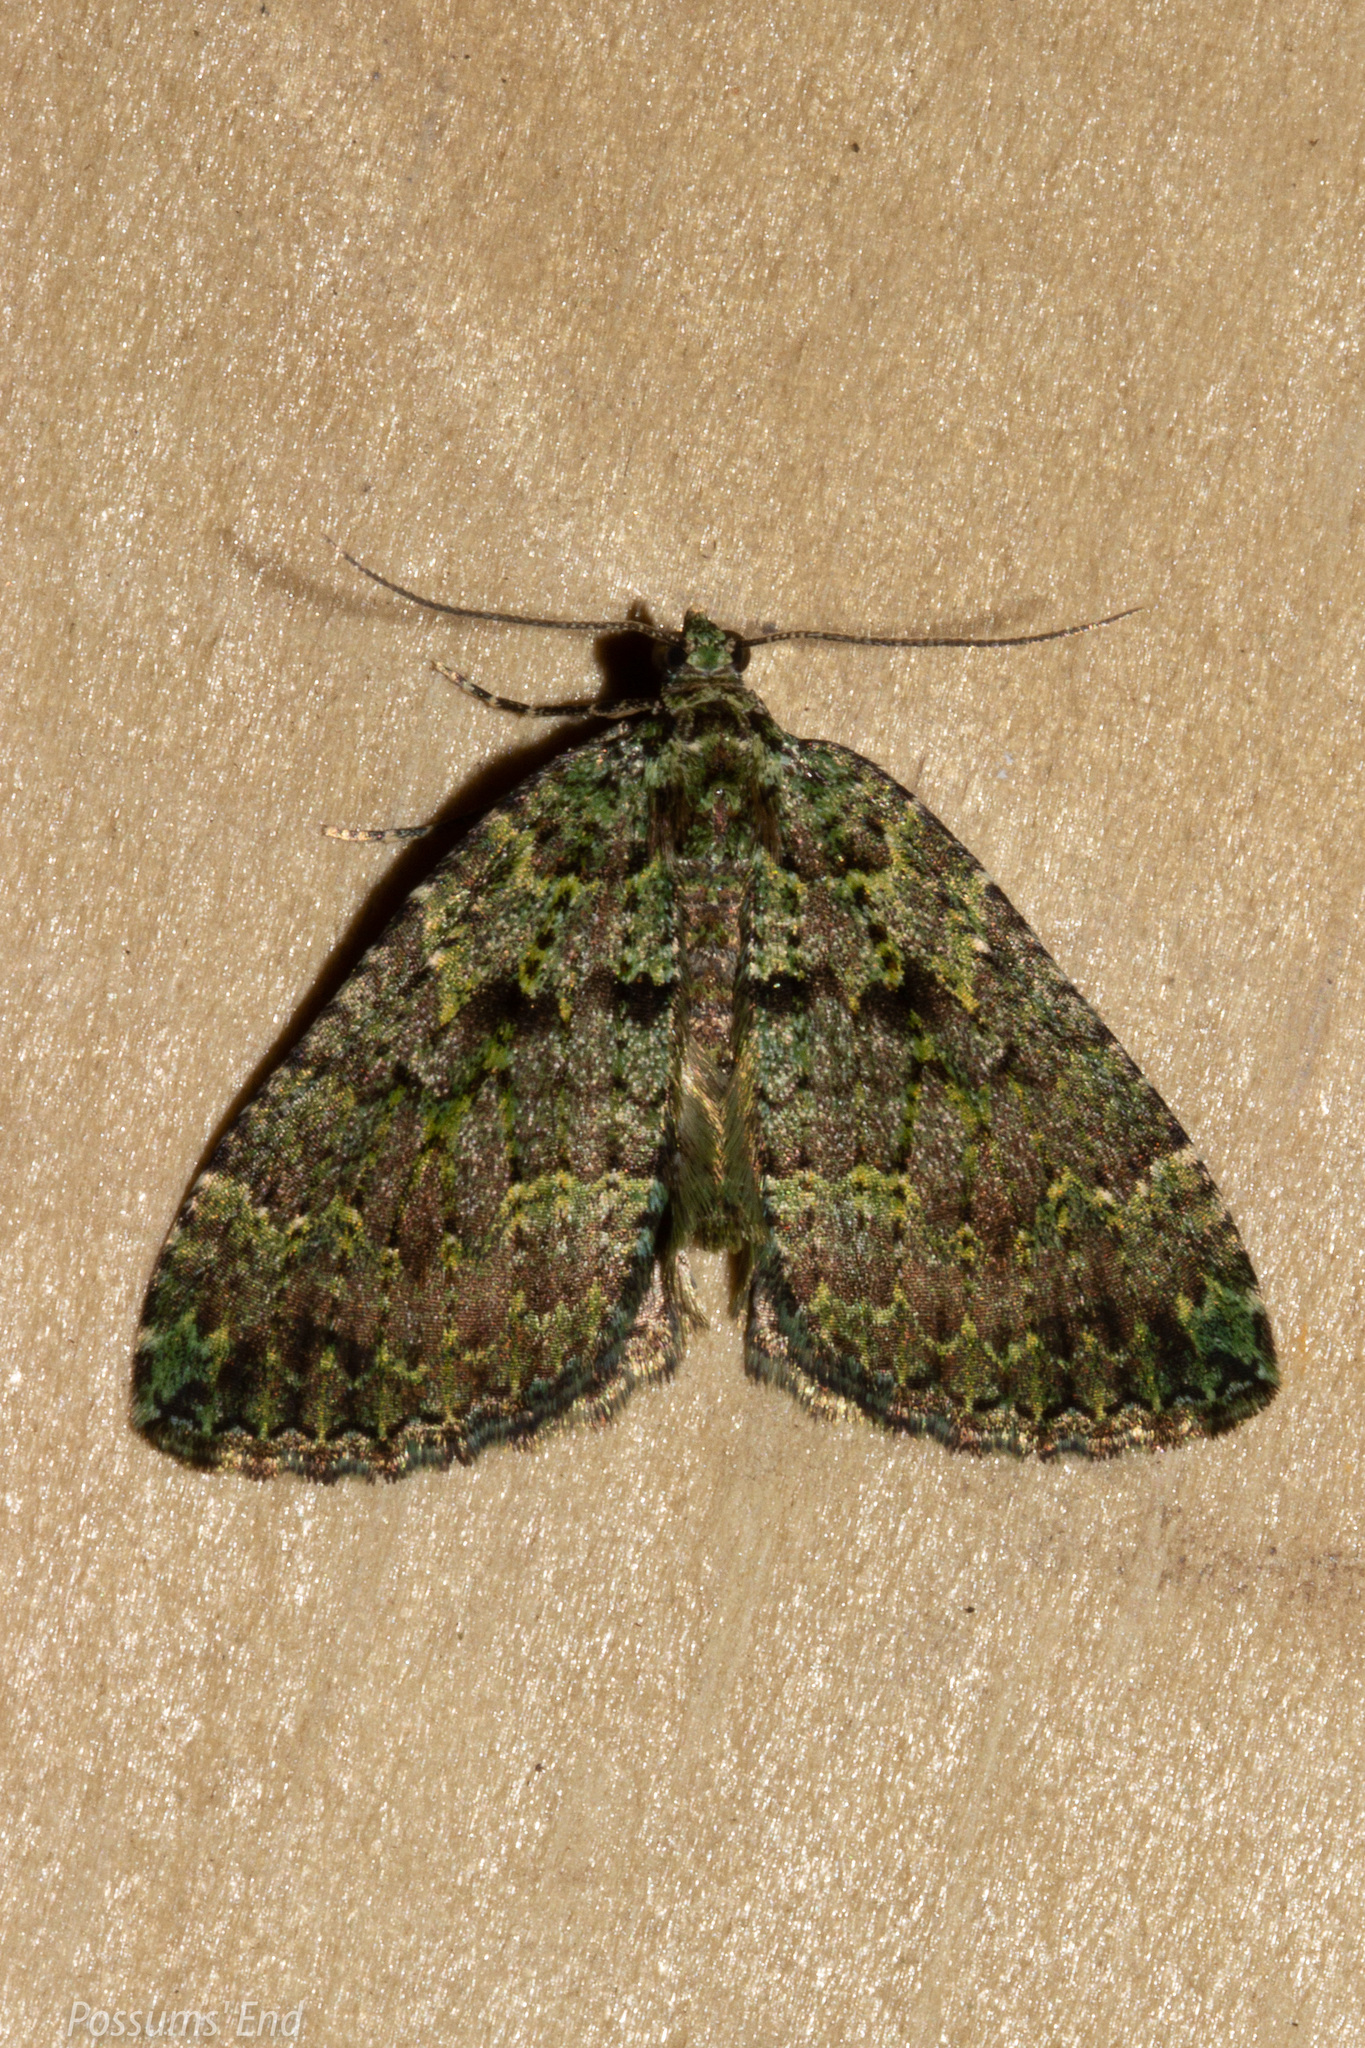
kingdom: Animalia
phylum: Arthropoda
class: Insecta
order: Lepidoptera
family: Geometridae
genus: Austrocidaria
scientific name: Austrocidaria callichlora
